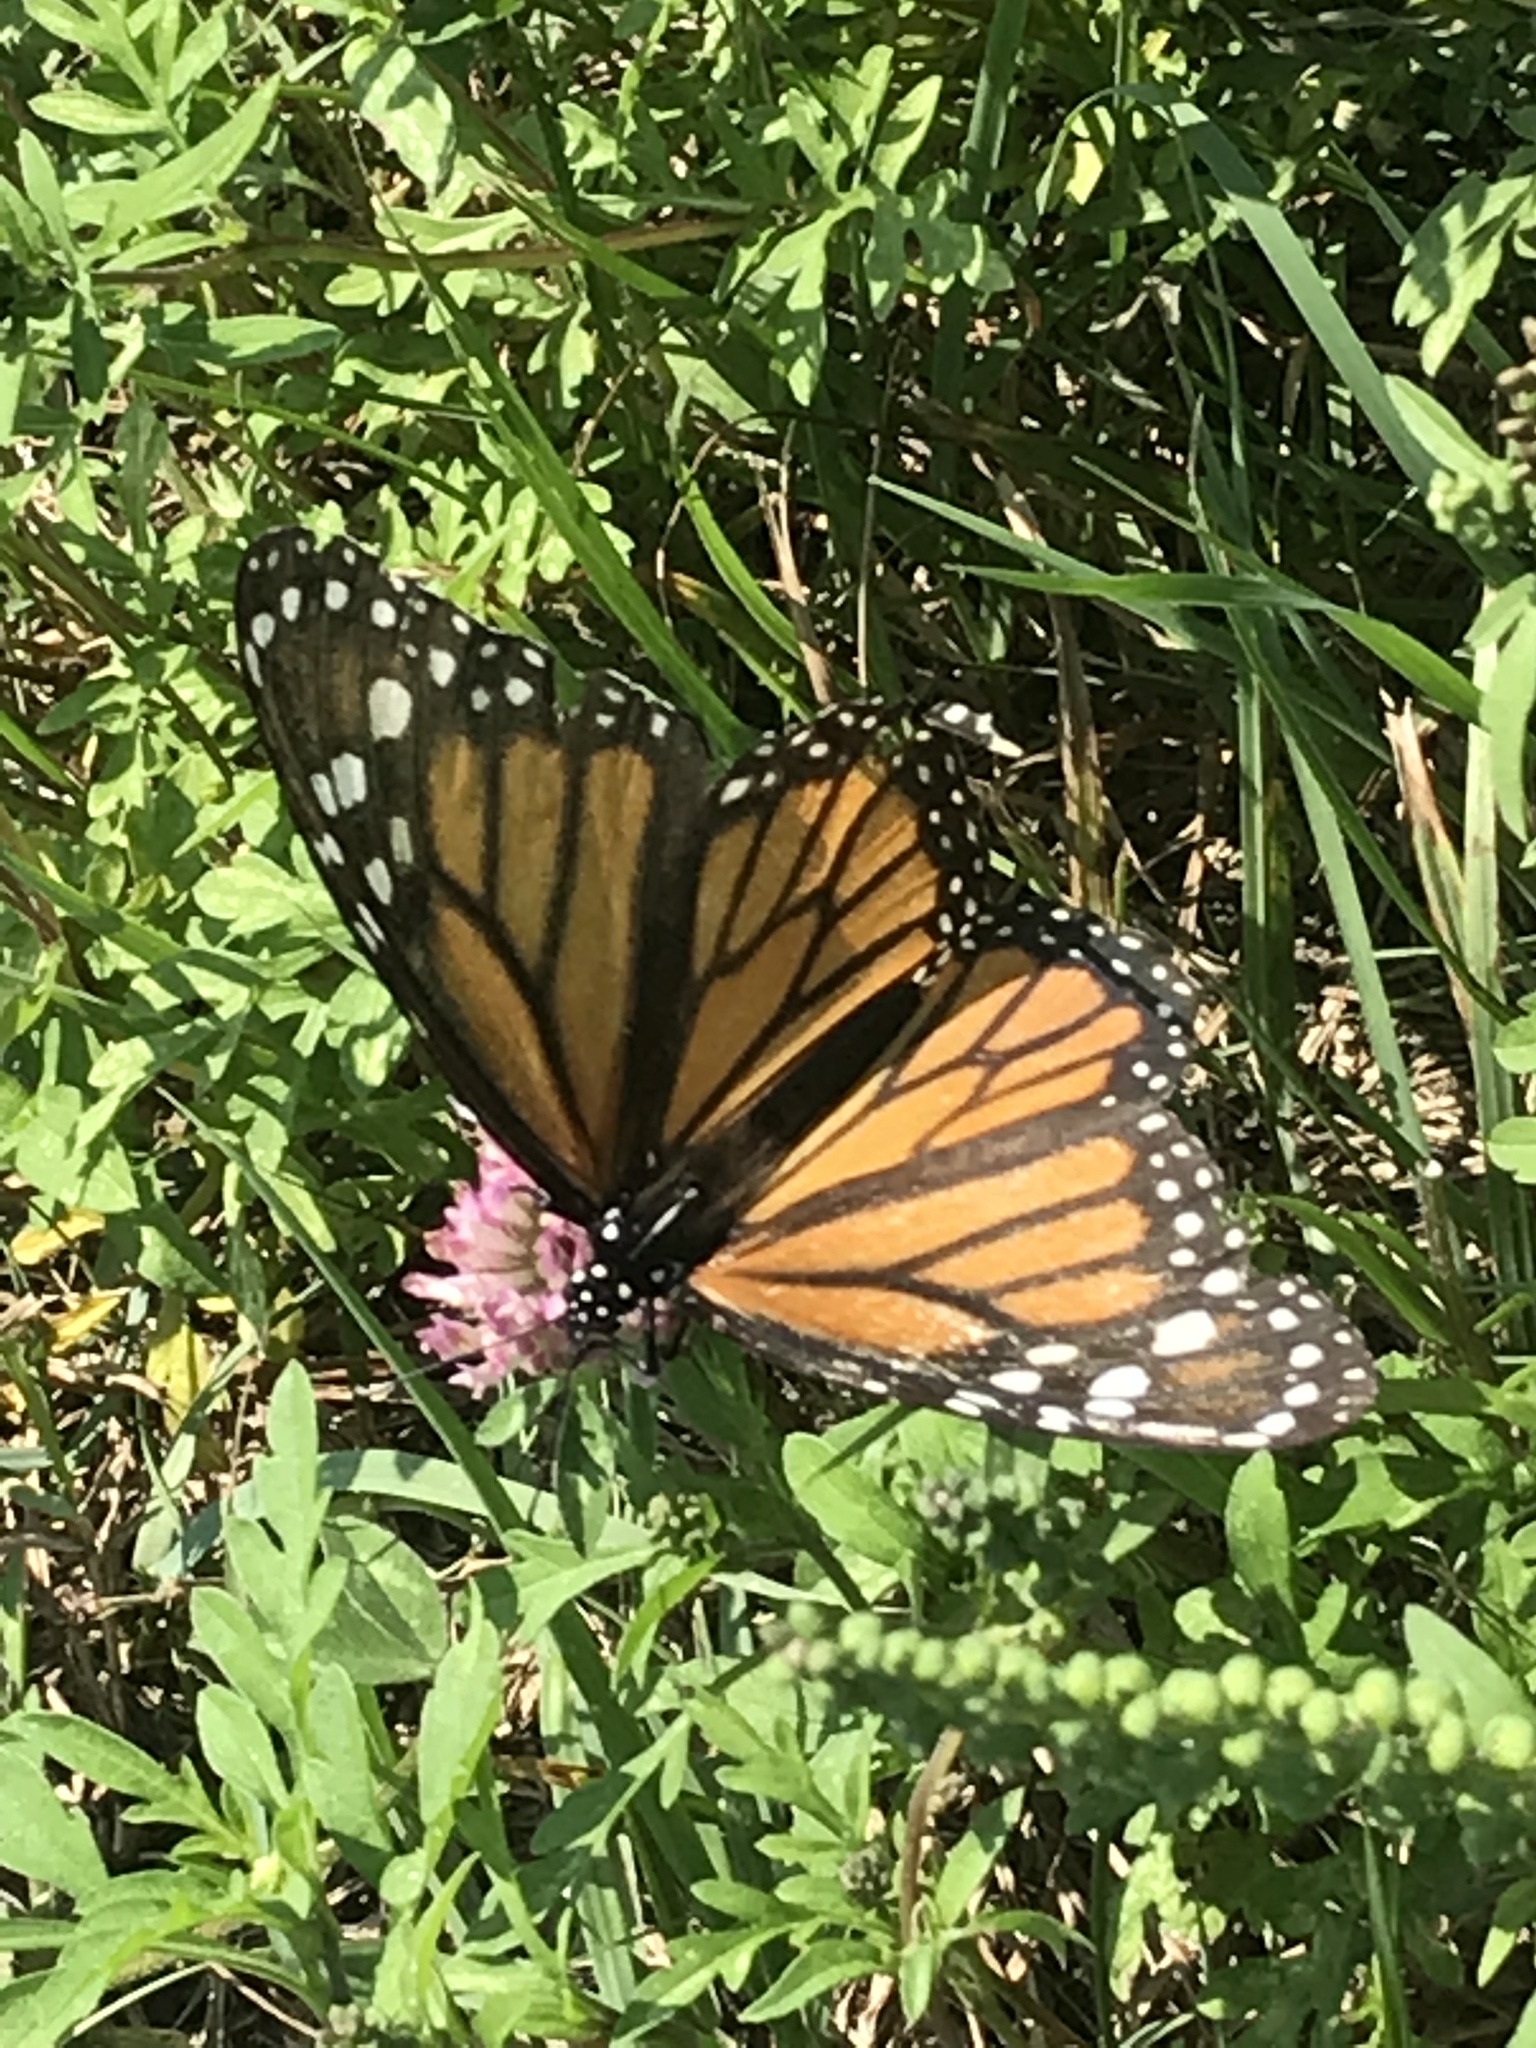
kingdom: Animalia
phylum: Arthropoda
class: Insecta
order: Lepidoptera
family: Nymphalidae
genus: Danaus
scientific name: Danaus plexippus
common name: Monarch
